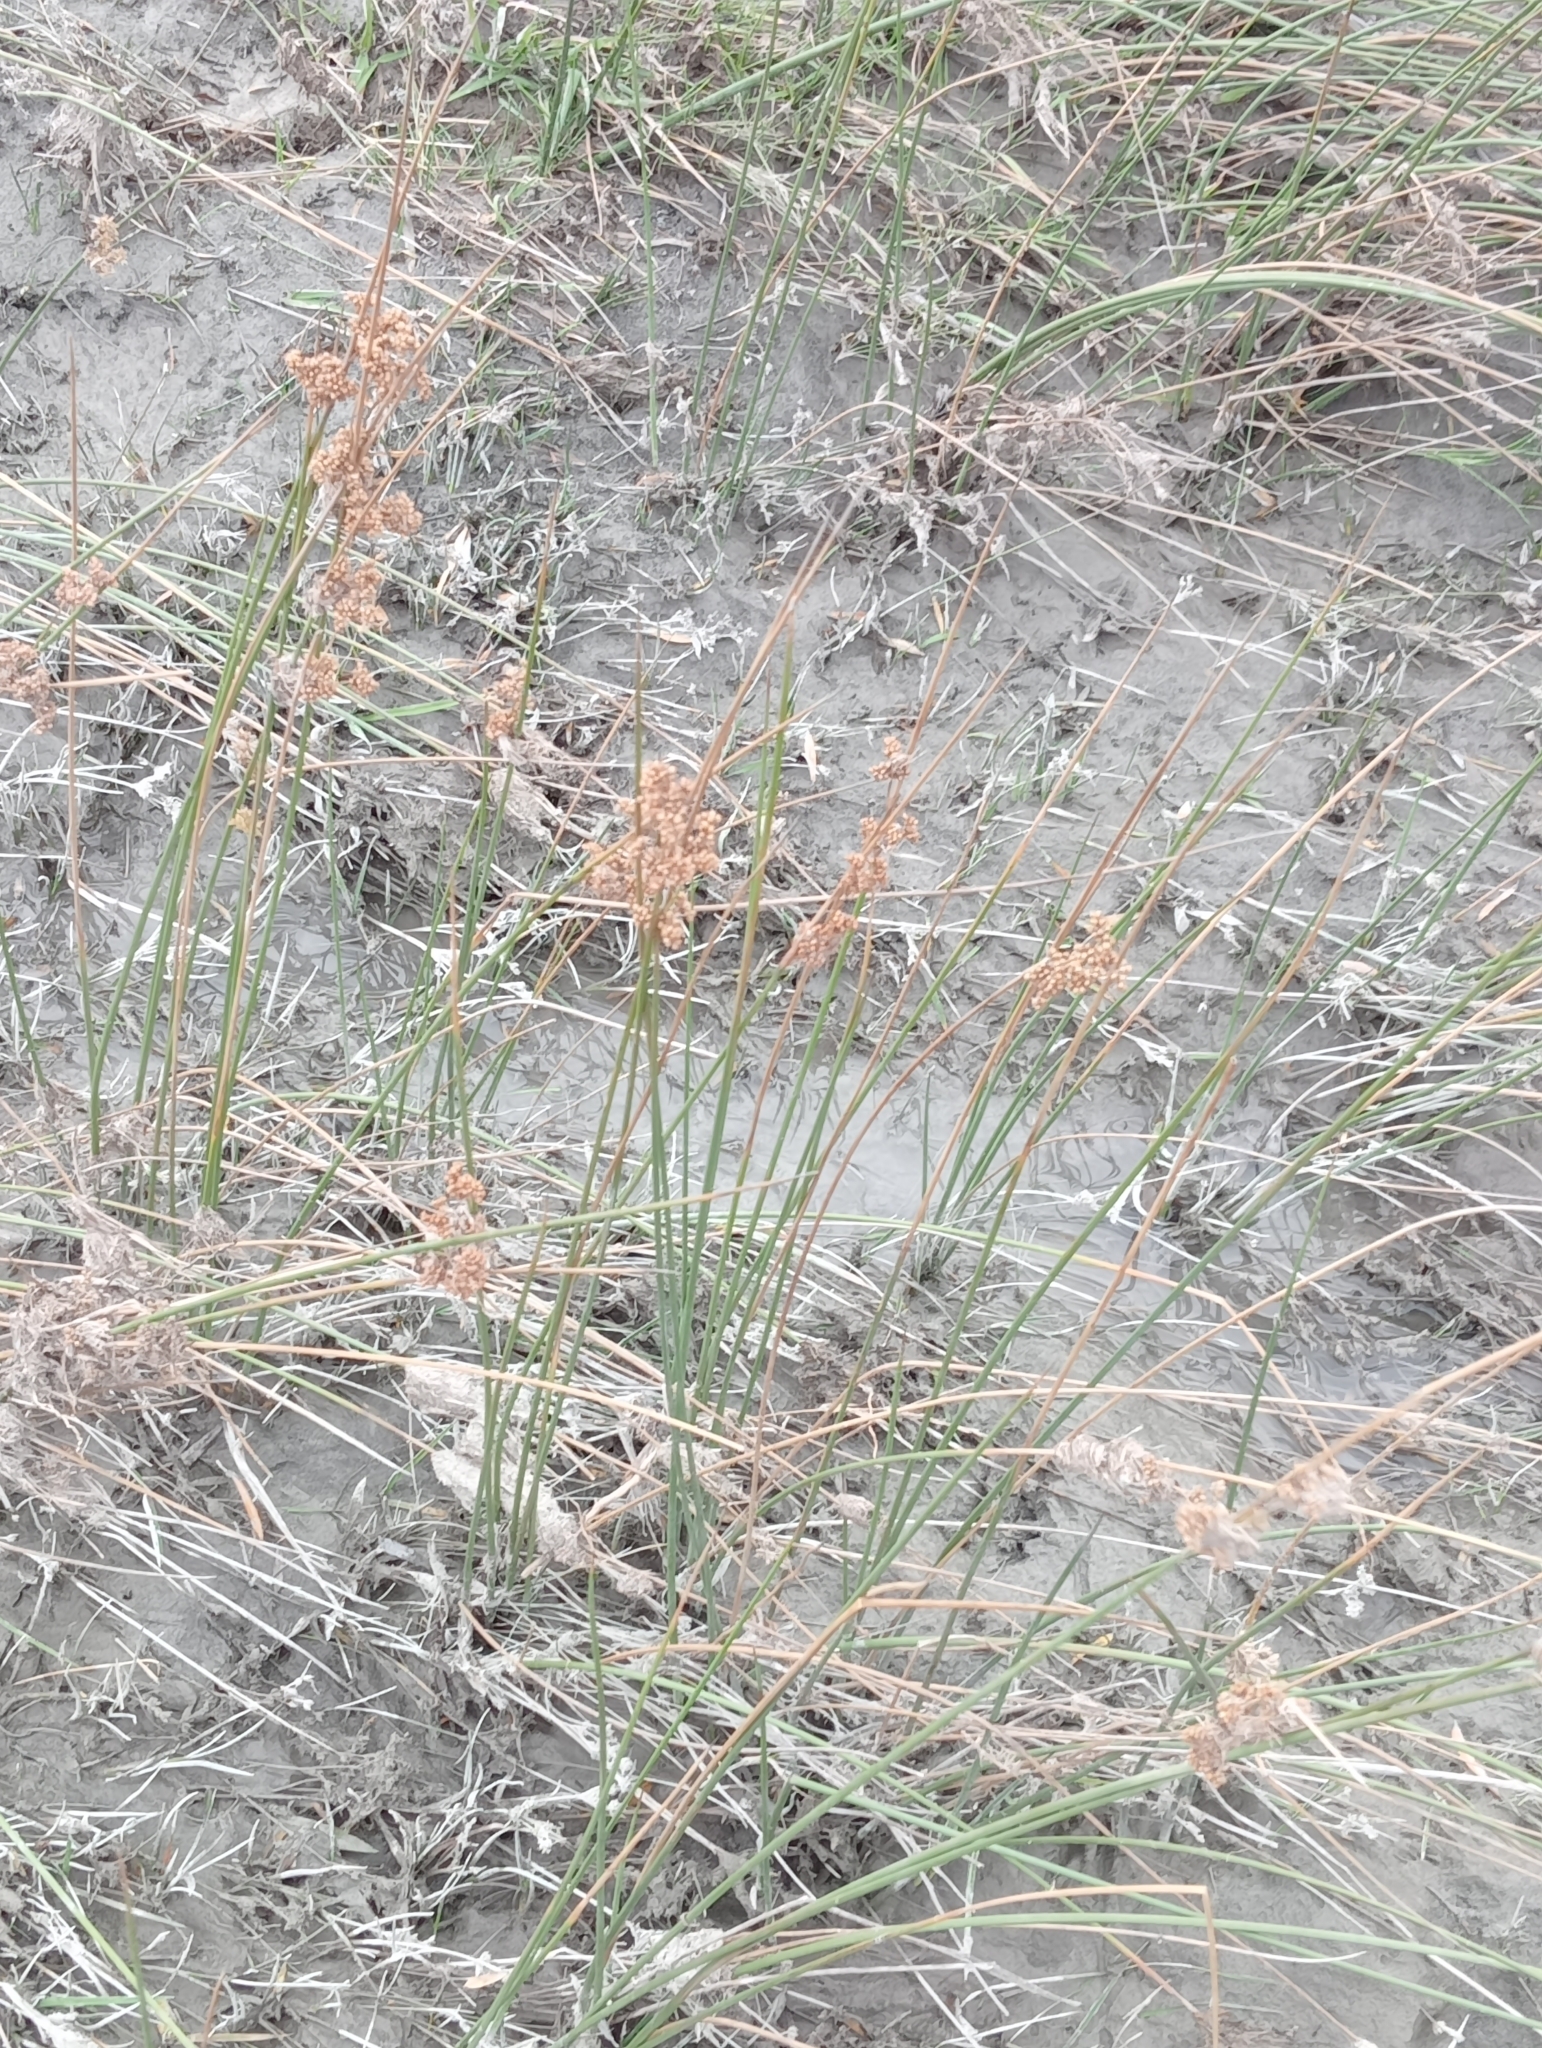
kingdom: Plantae
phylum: Tracheophyta
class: Liliopsida
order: Poales
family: Juncaceae
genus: Juncus
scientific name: Juncus australis
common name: Austral rush
